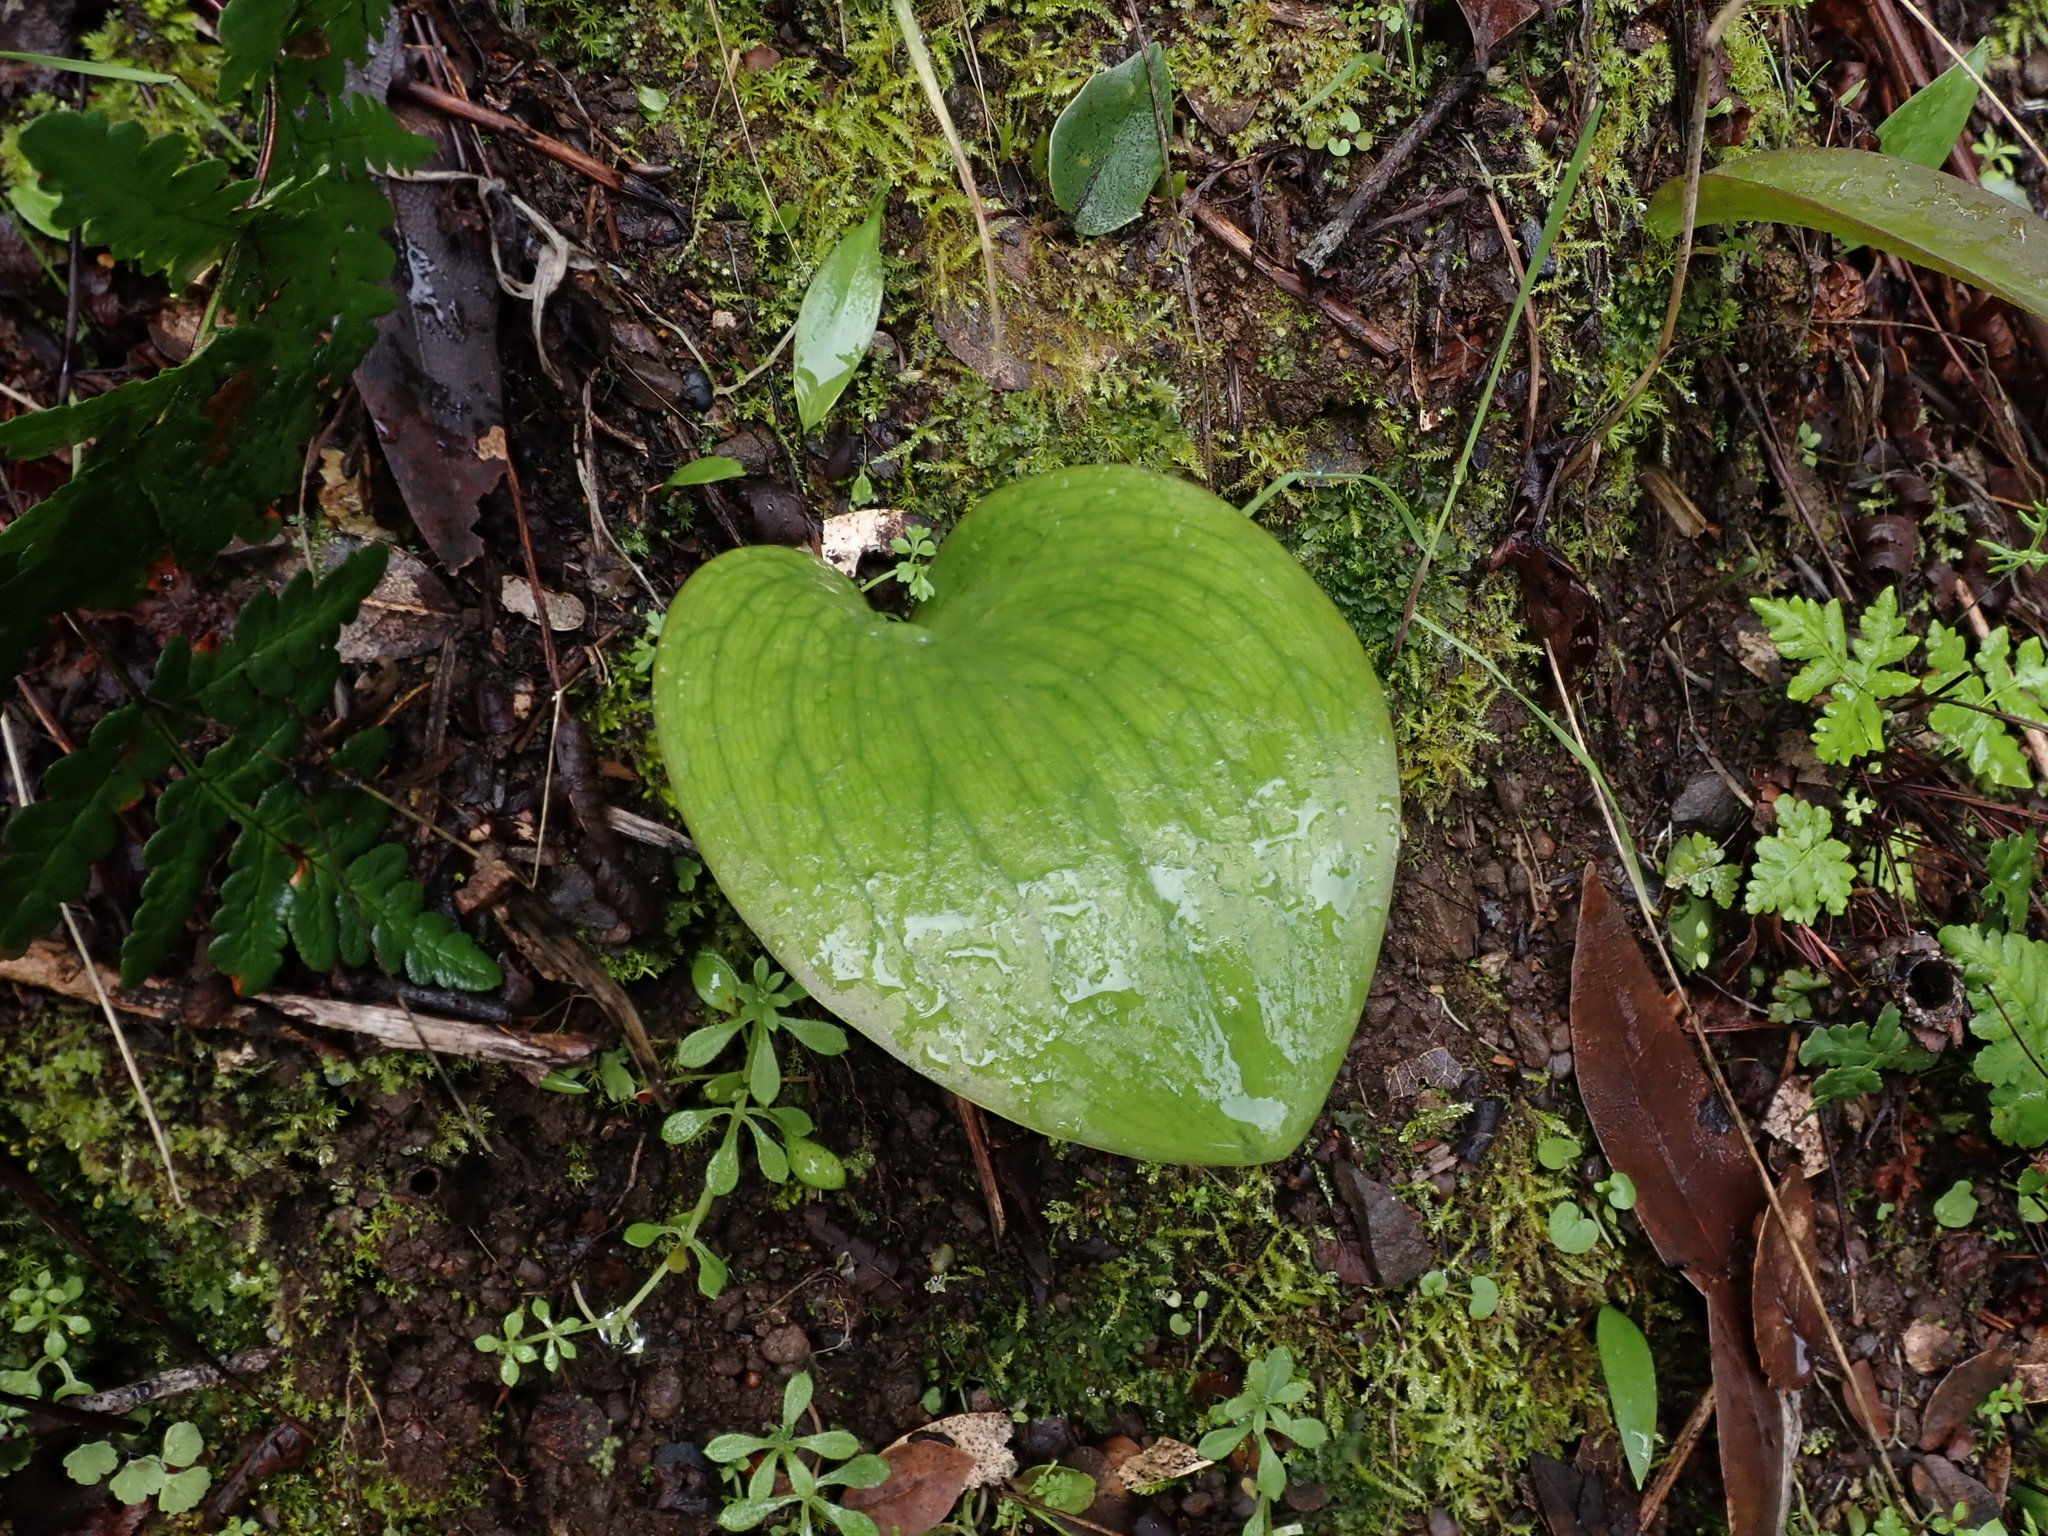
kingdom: Plantae
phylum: Tracheophyta
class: Liliopsida
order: Liliales
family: Liliaceae
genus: Fritillaria
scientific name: Fritillaria affinis
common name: Ojai fritillary
